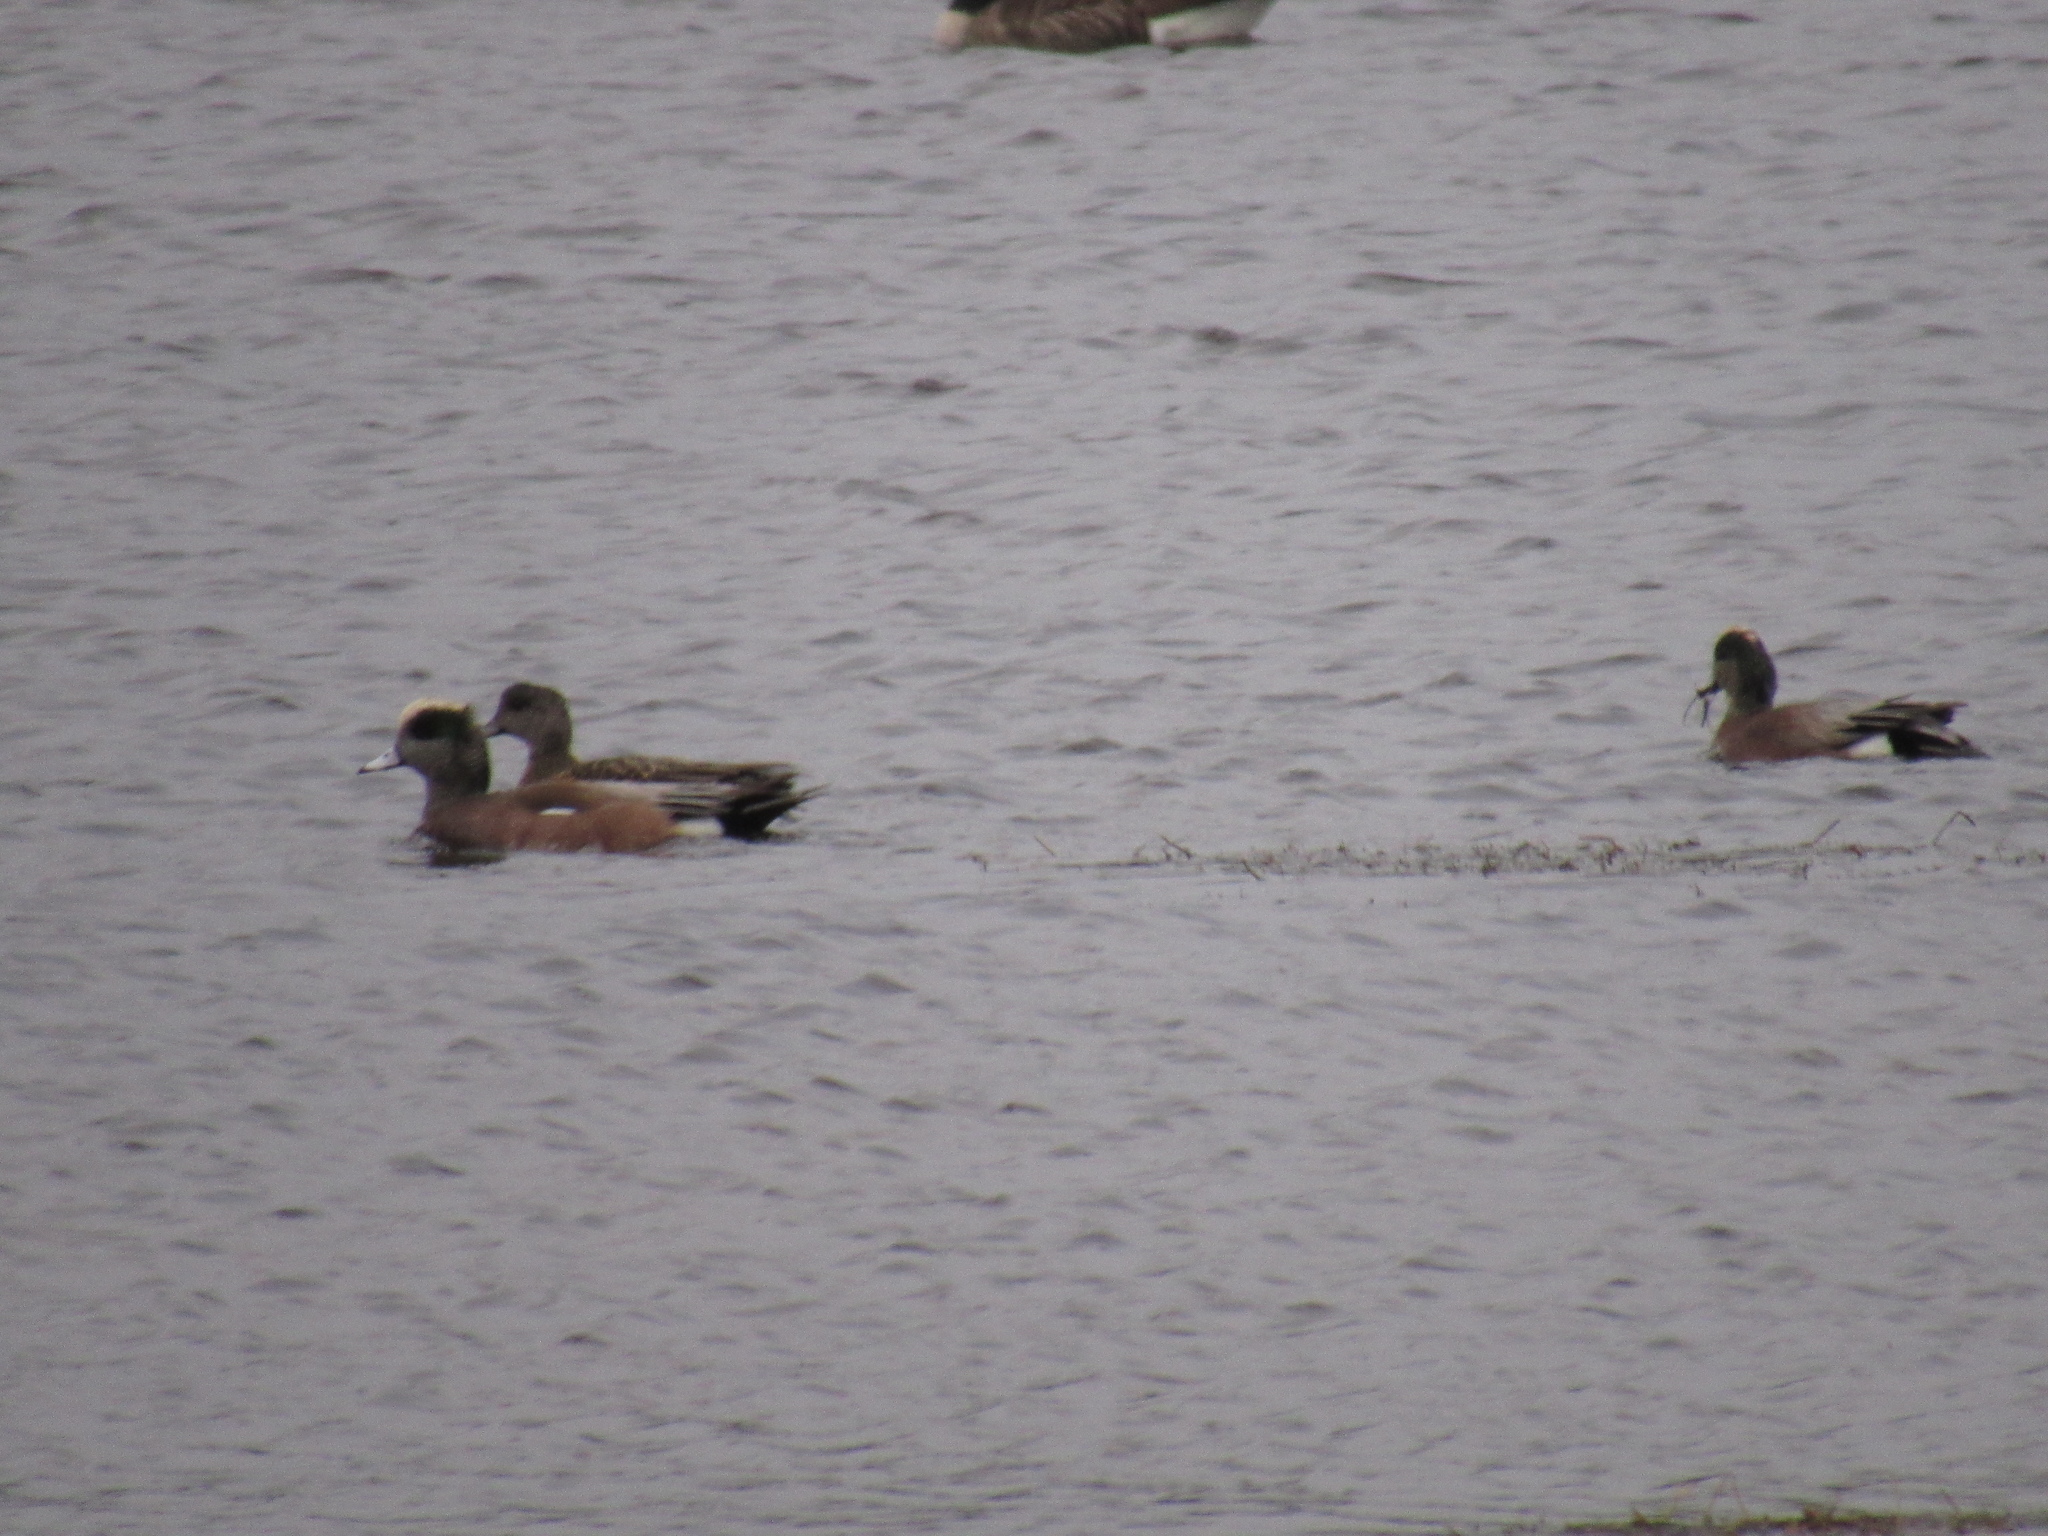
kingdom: Animalia
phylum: Chordata
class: Aves
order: Anseriformes
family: Anatidae
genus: Mareca
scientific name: Mareca americana
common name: American wigeon
